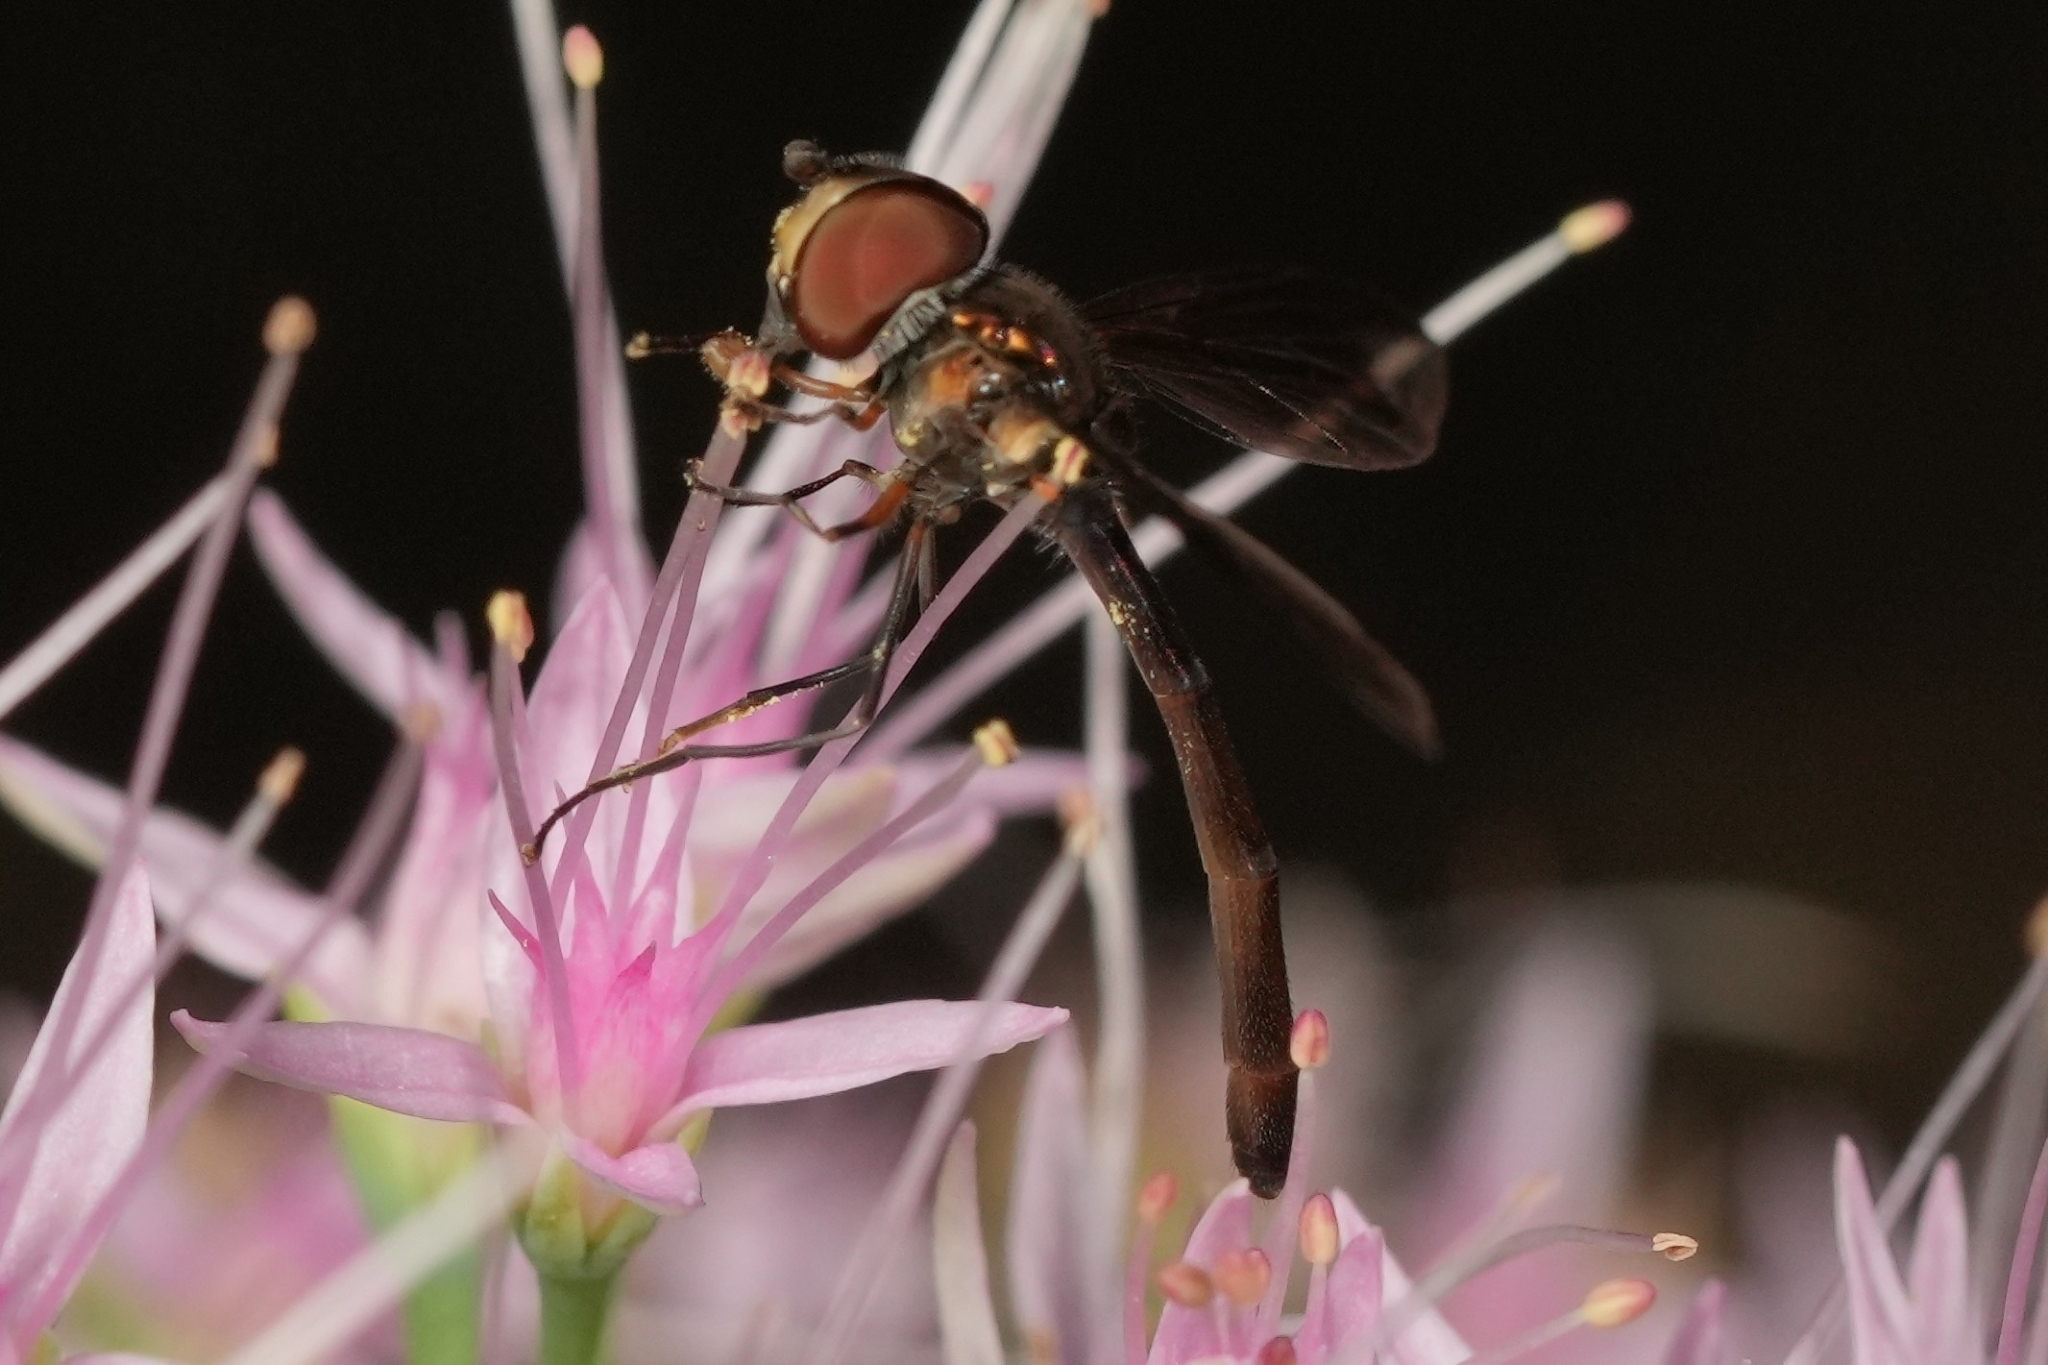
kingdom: Animalia
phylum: Arthropoda
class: Insecta
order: Diptera
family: Syrphidae
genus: Ocyptamus
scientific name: Ocyptamus fuscipennis
